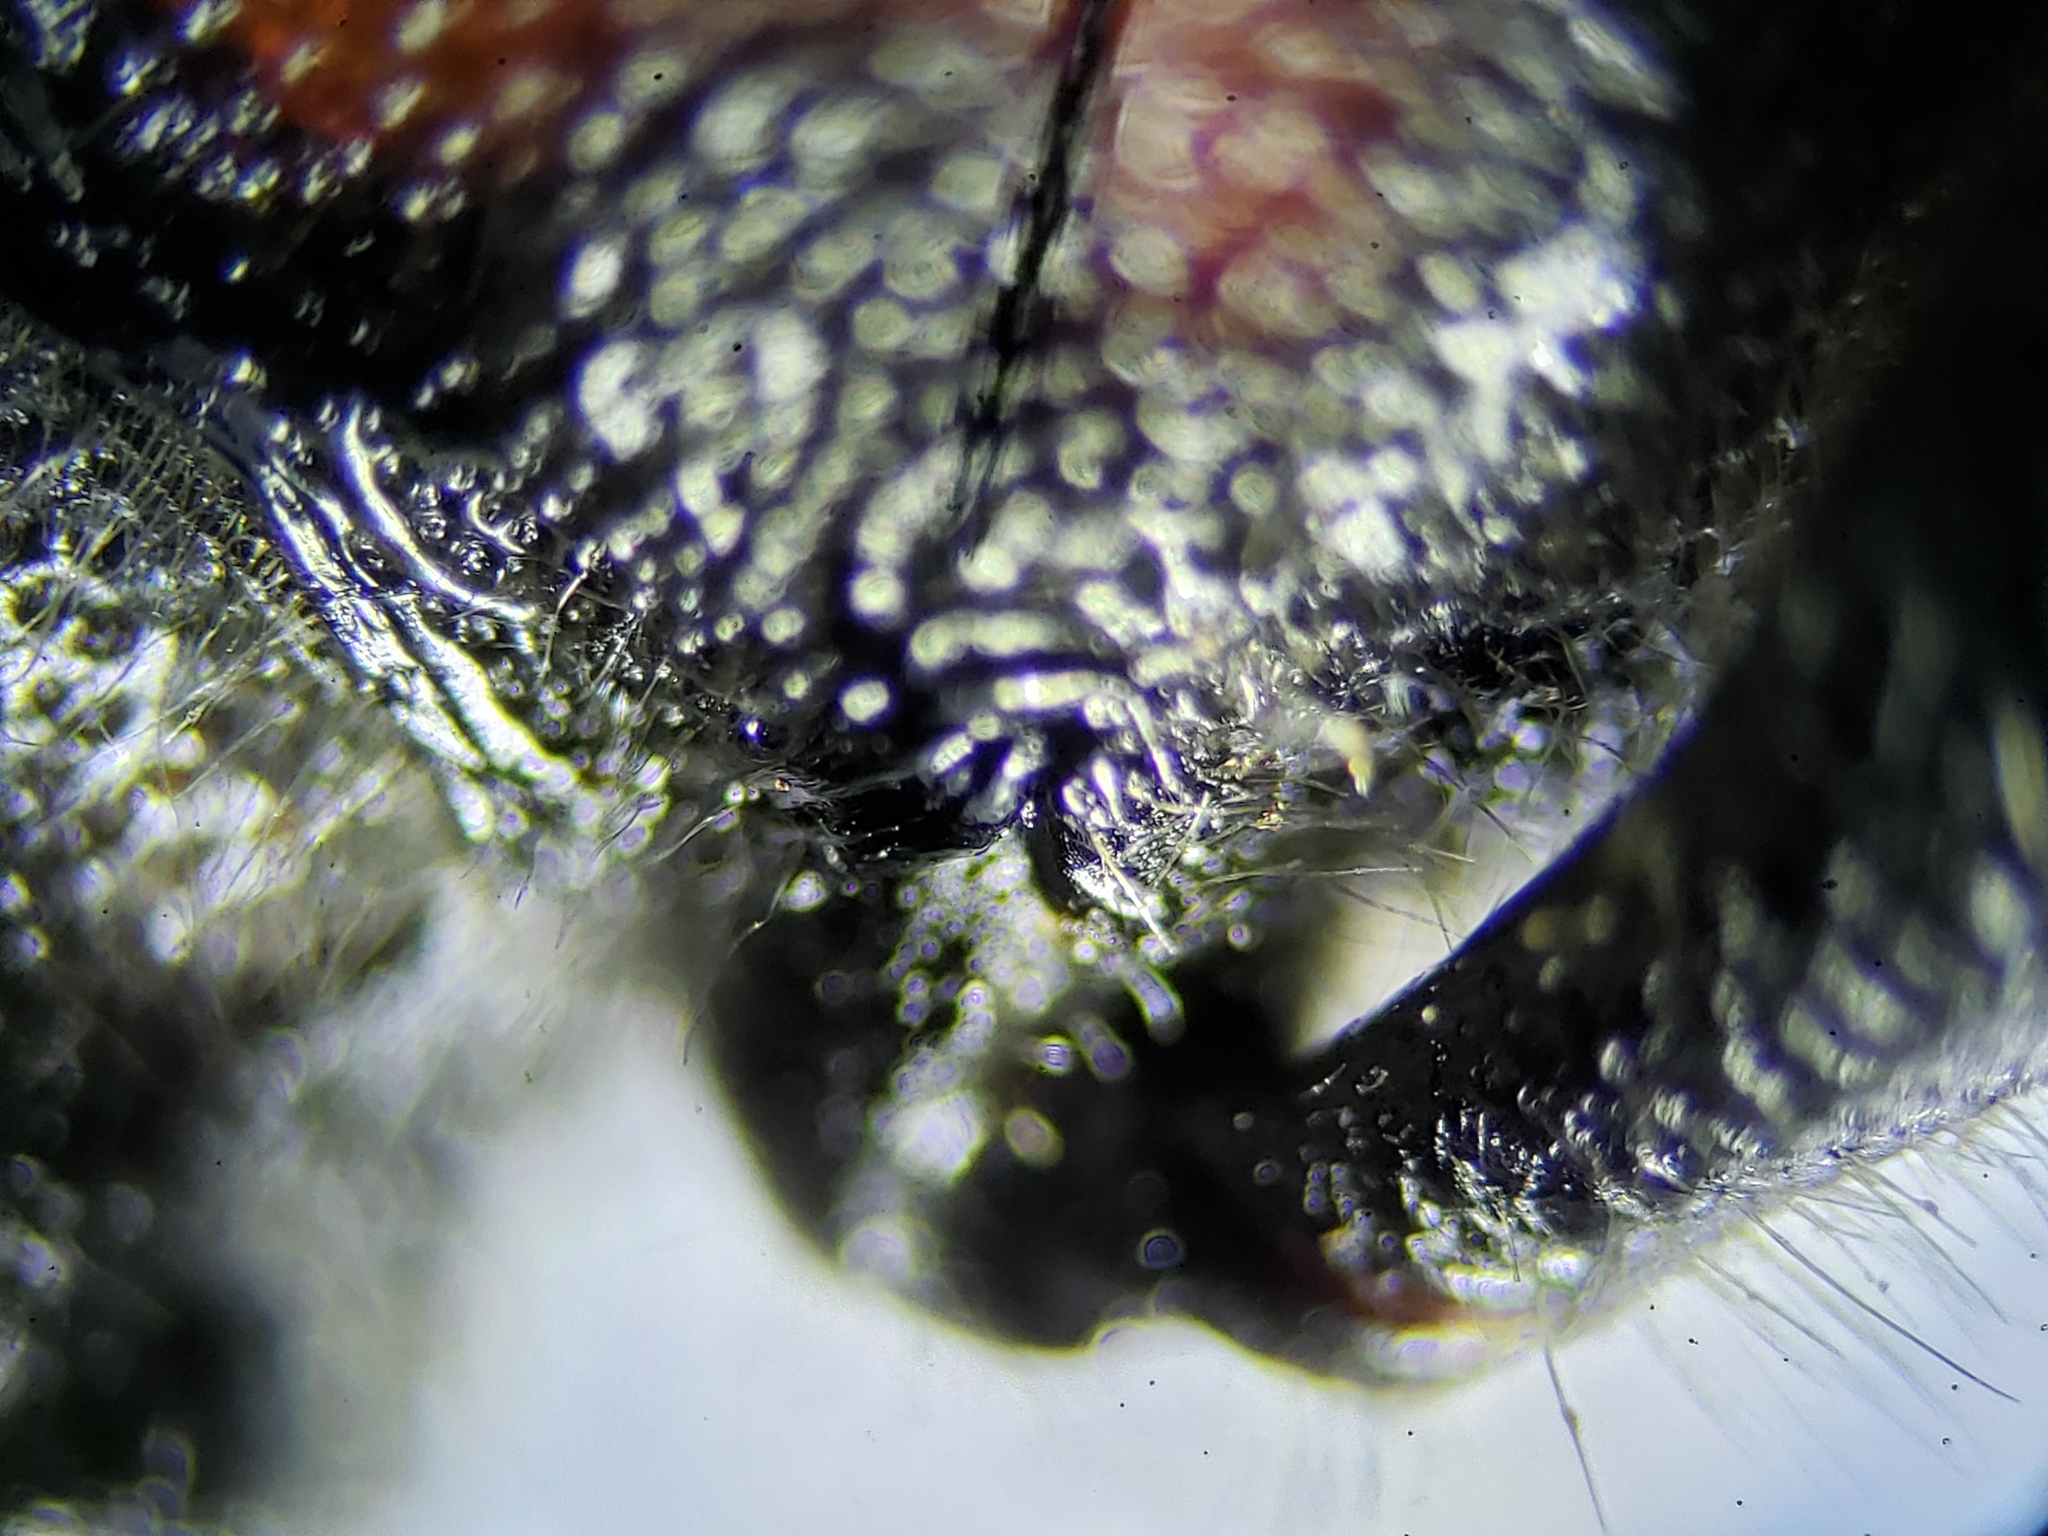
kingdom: Animalia
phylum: Arthropoda
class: Insecta
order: Coleoptera
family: Cerambycidae
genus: Zagymnus
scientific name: Zagymnus clerinus
